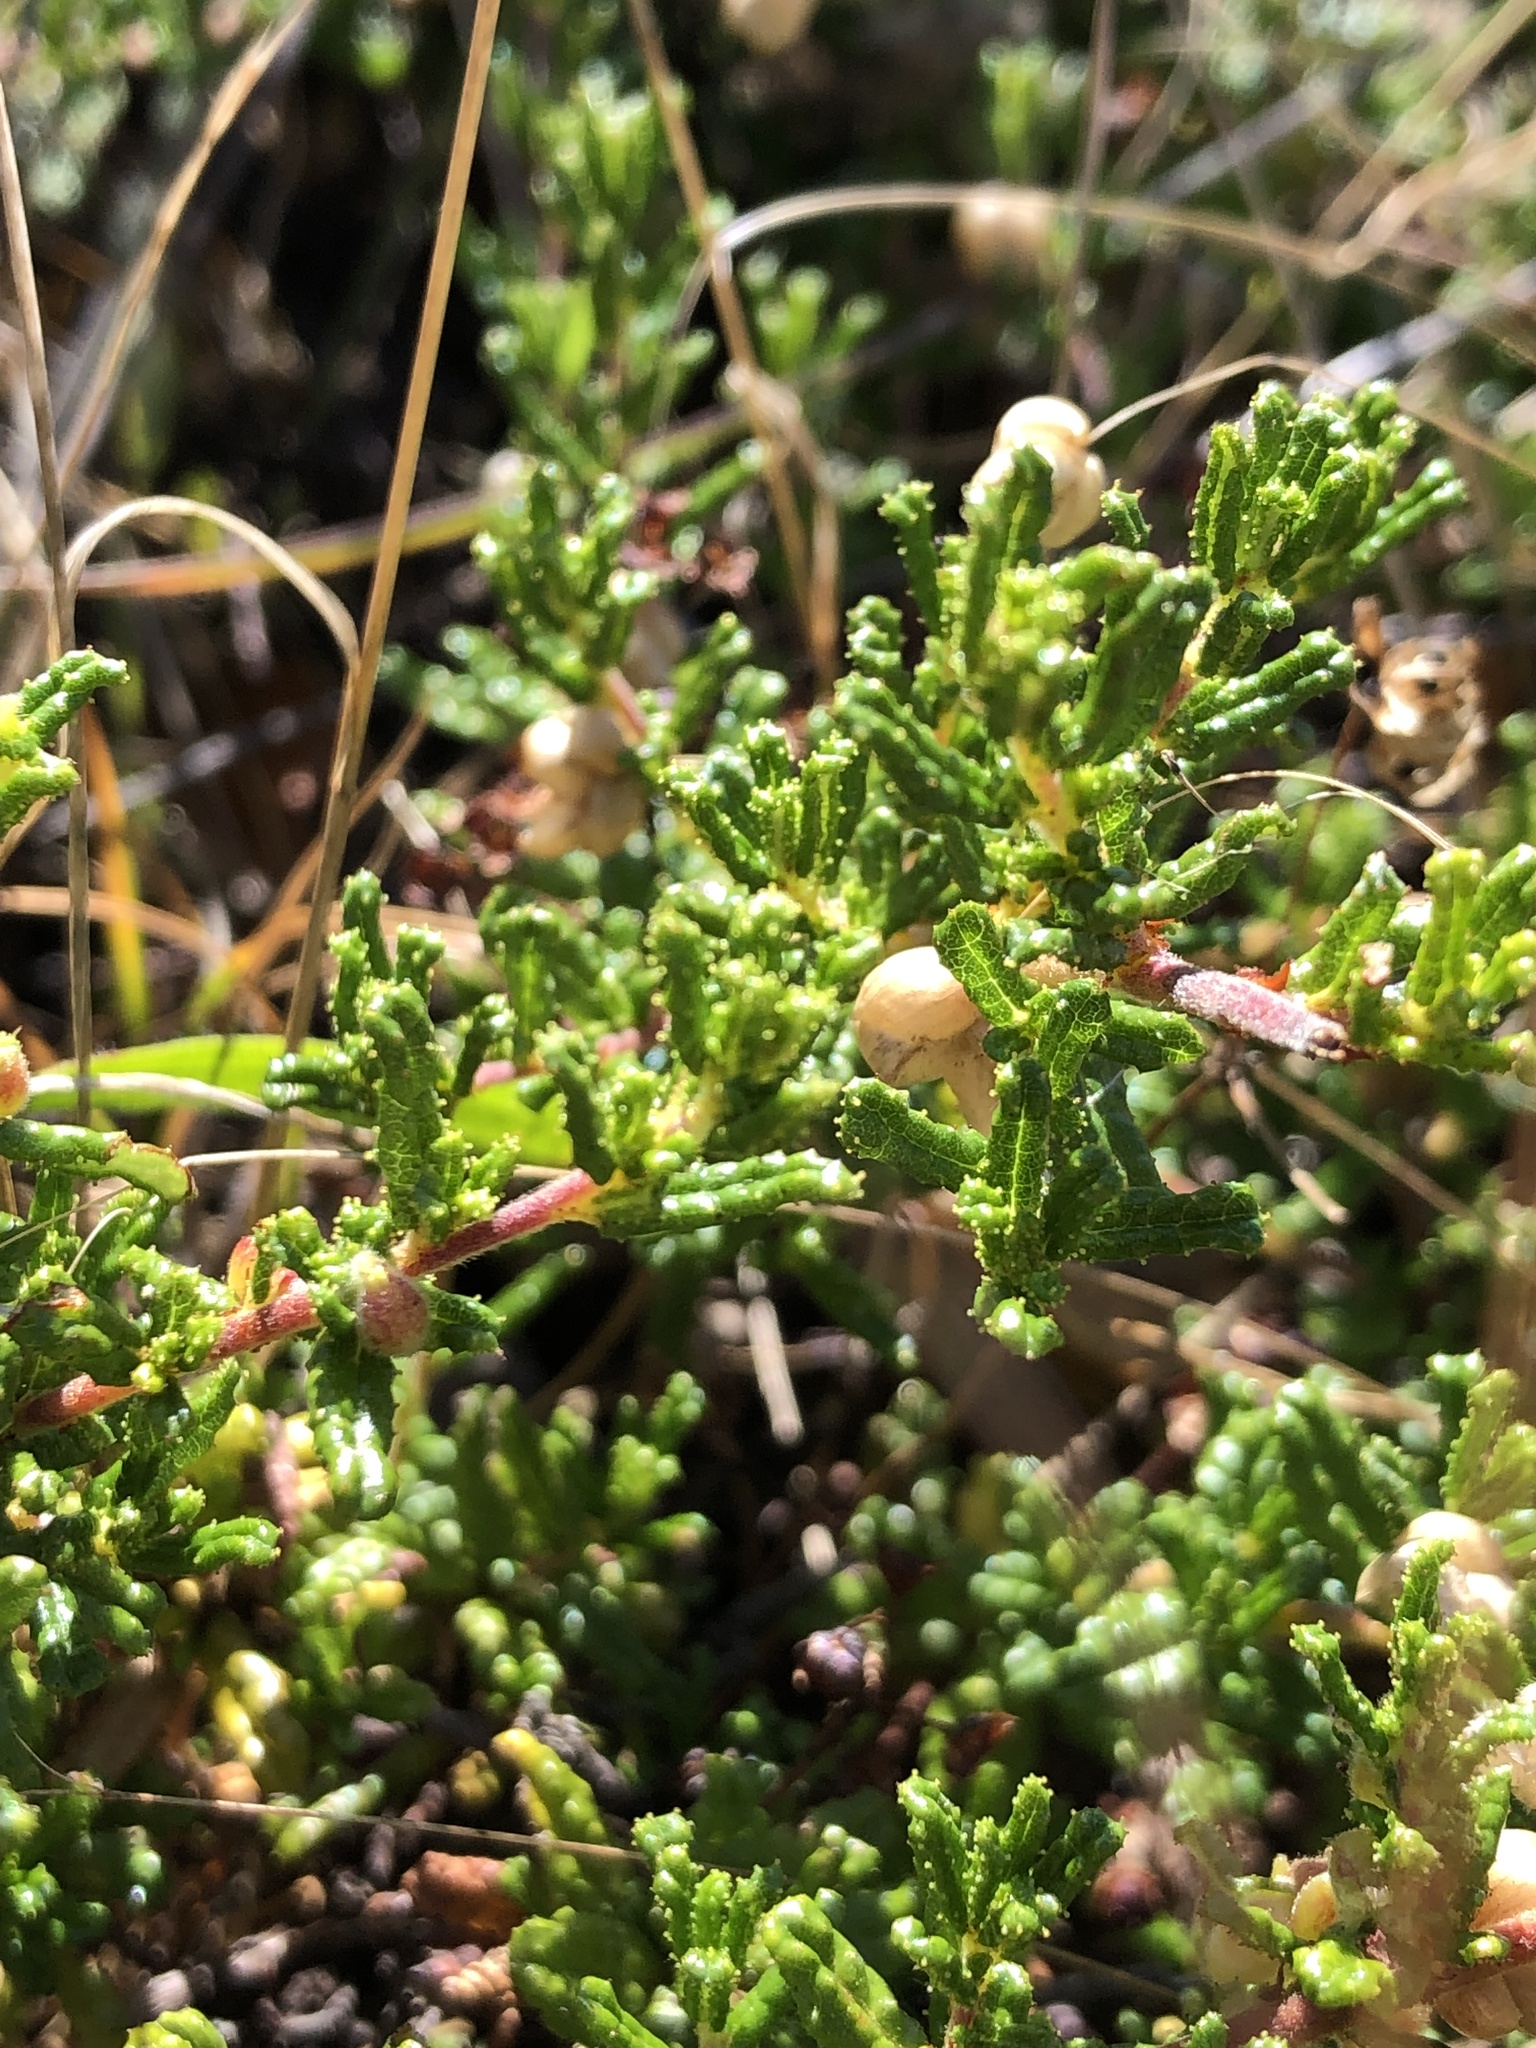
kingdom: Plantae
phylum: Tracheophyta
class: Magnoliopsida
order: Rosales
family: Rhamnaceae
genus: Ceanothus
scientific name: Ceanothus hearstiorum
